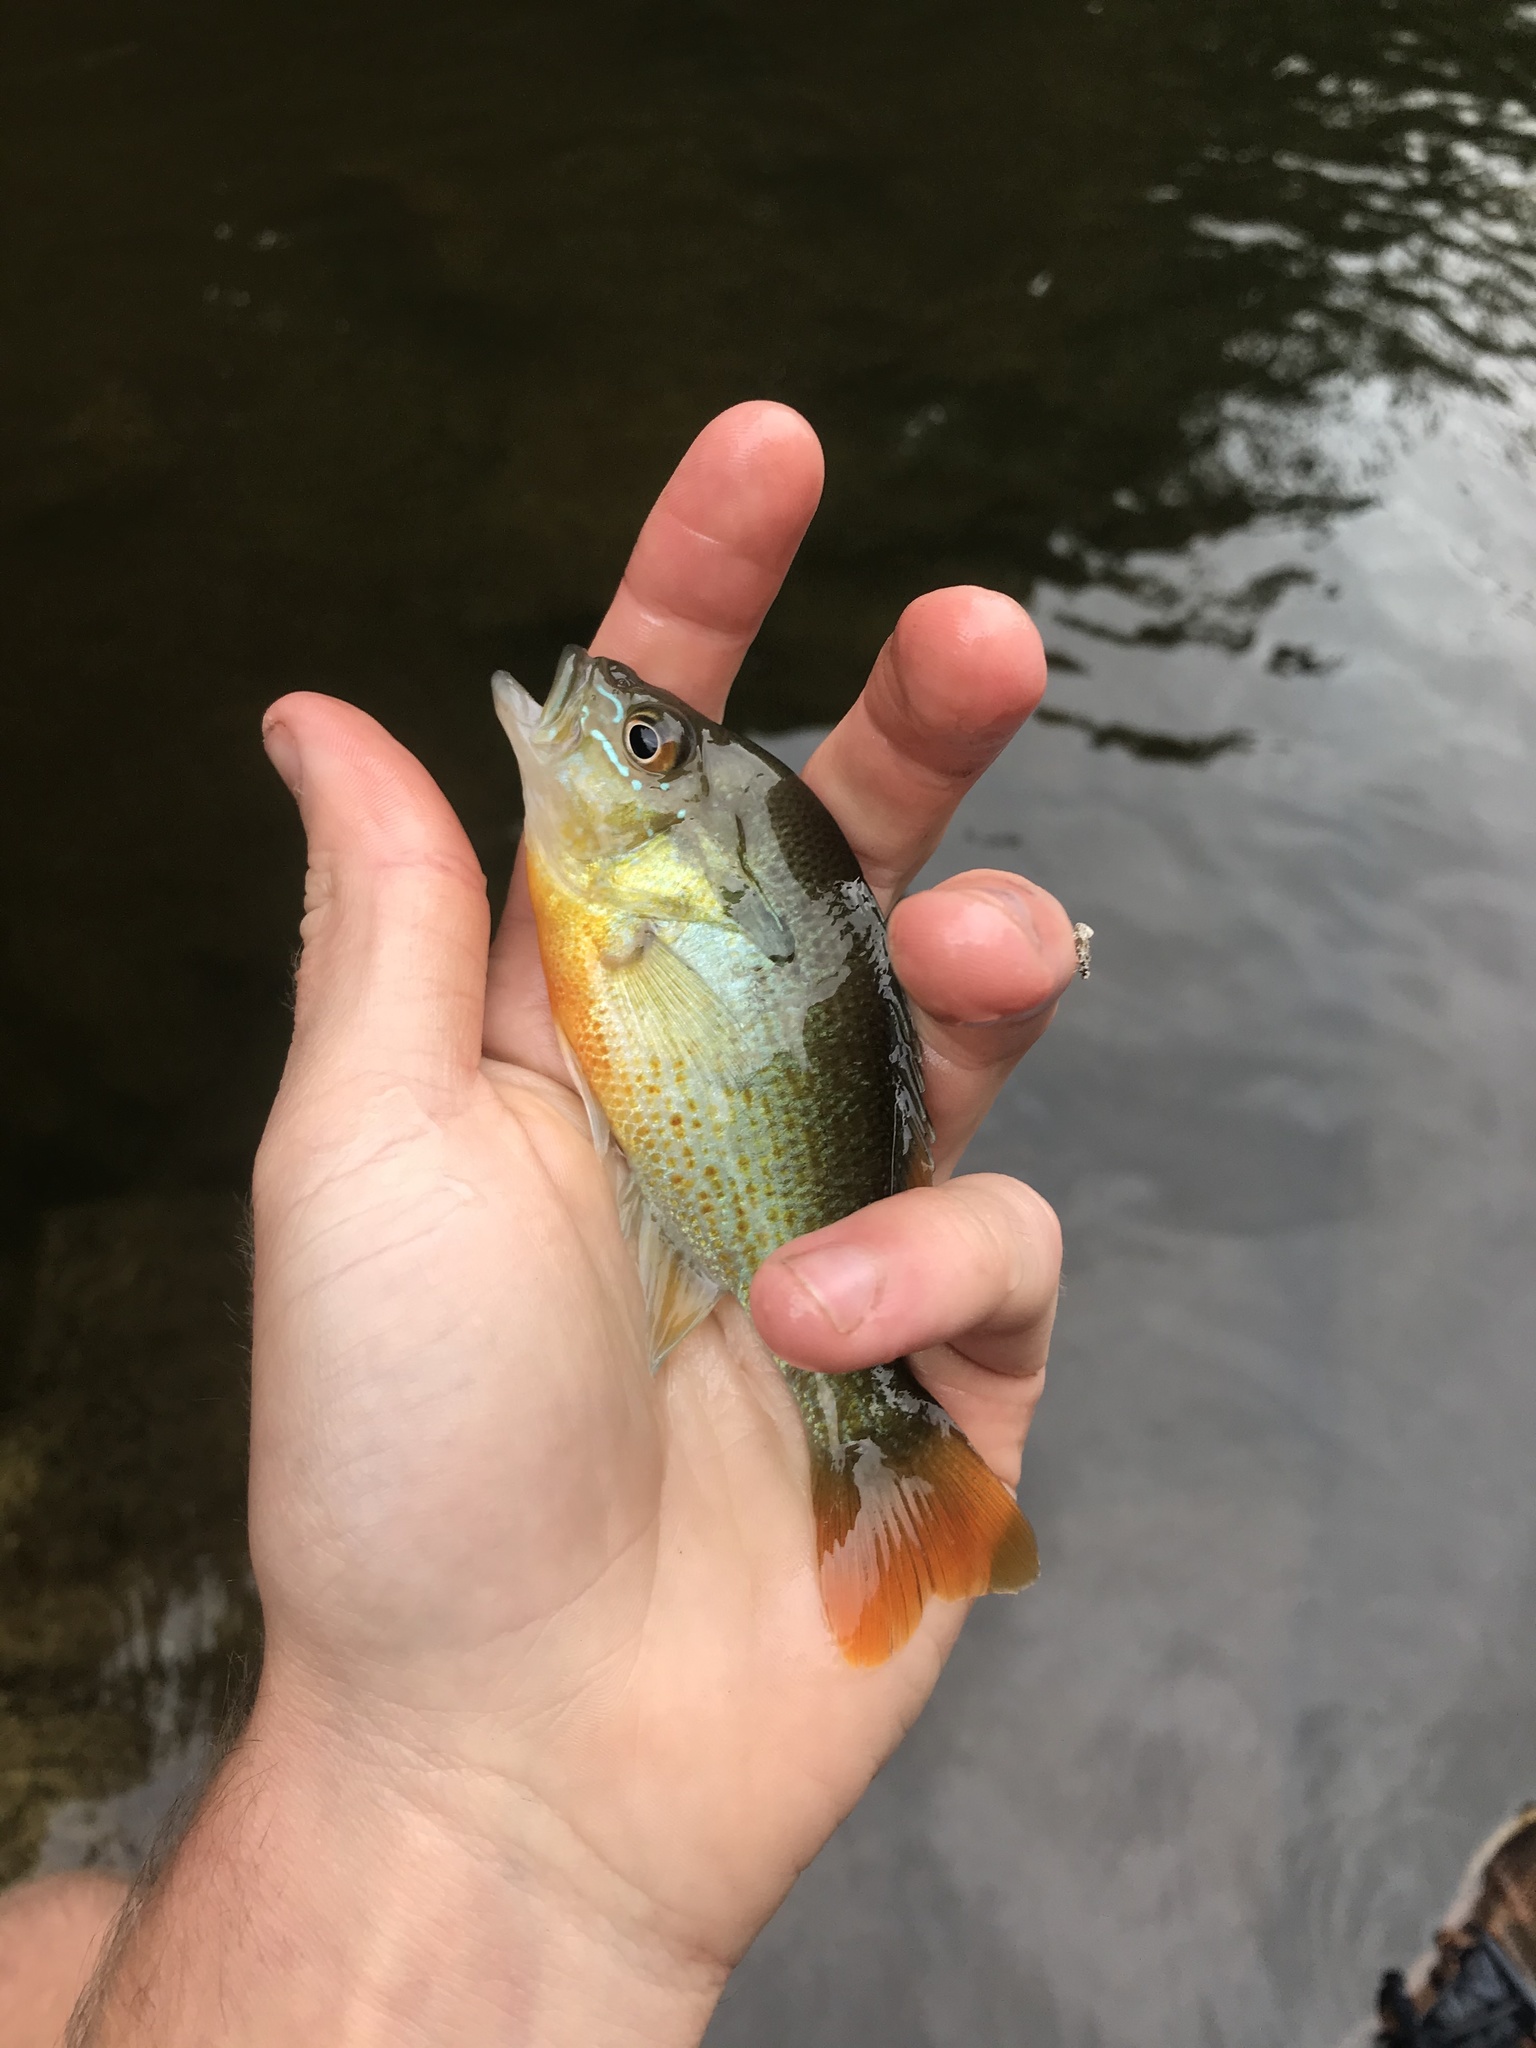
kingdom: Animalia
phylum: Chordata
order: Perciformes
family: Centrarchidae
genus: Lepomis
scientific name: Lepomis auritus
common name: Redbreast sunfish
